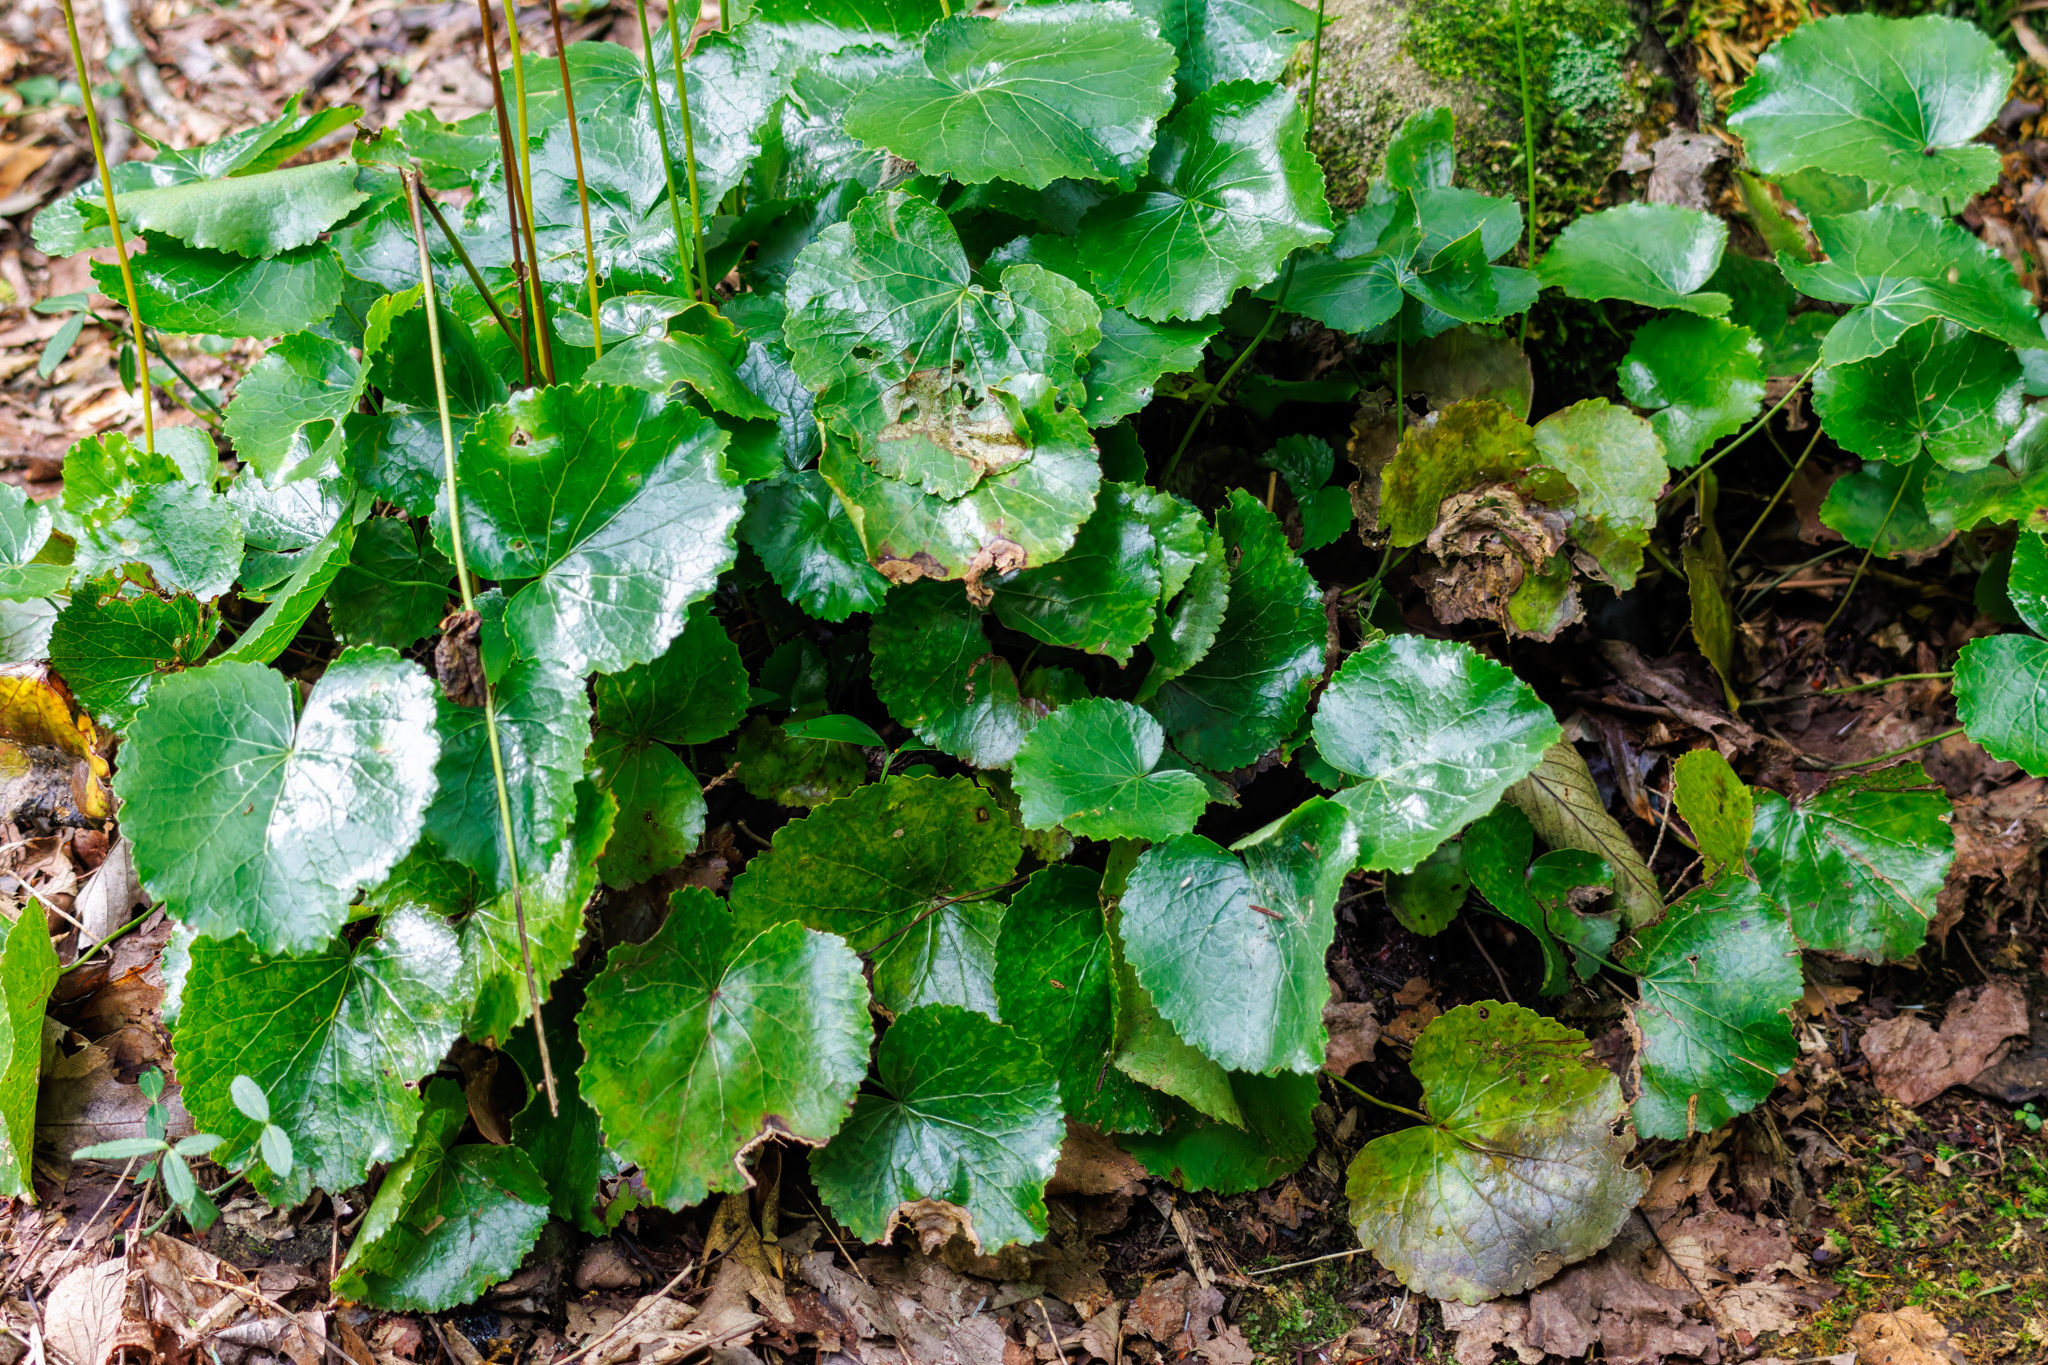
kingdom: Plantae
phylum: Tracheophyta
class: Magnoliopsida
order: Ericales
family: Diapensiaceae
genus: Galax
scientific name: Galax urceolata
